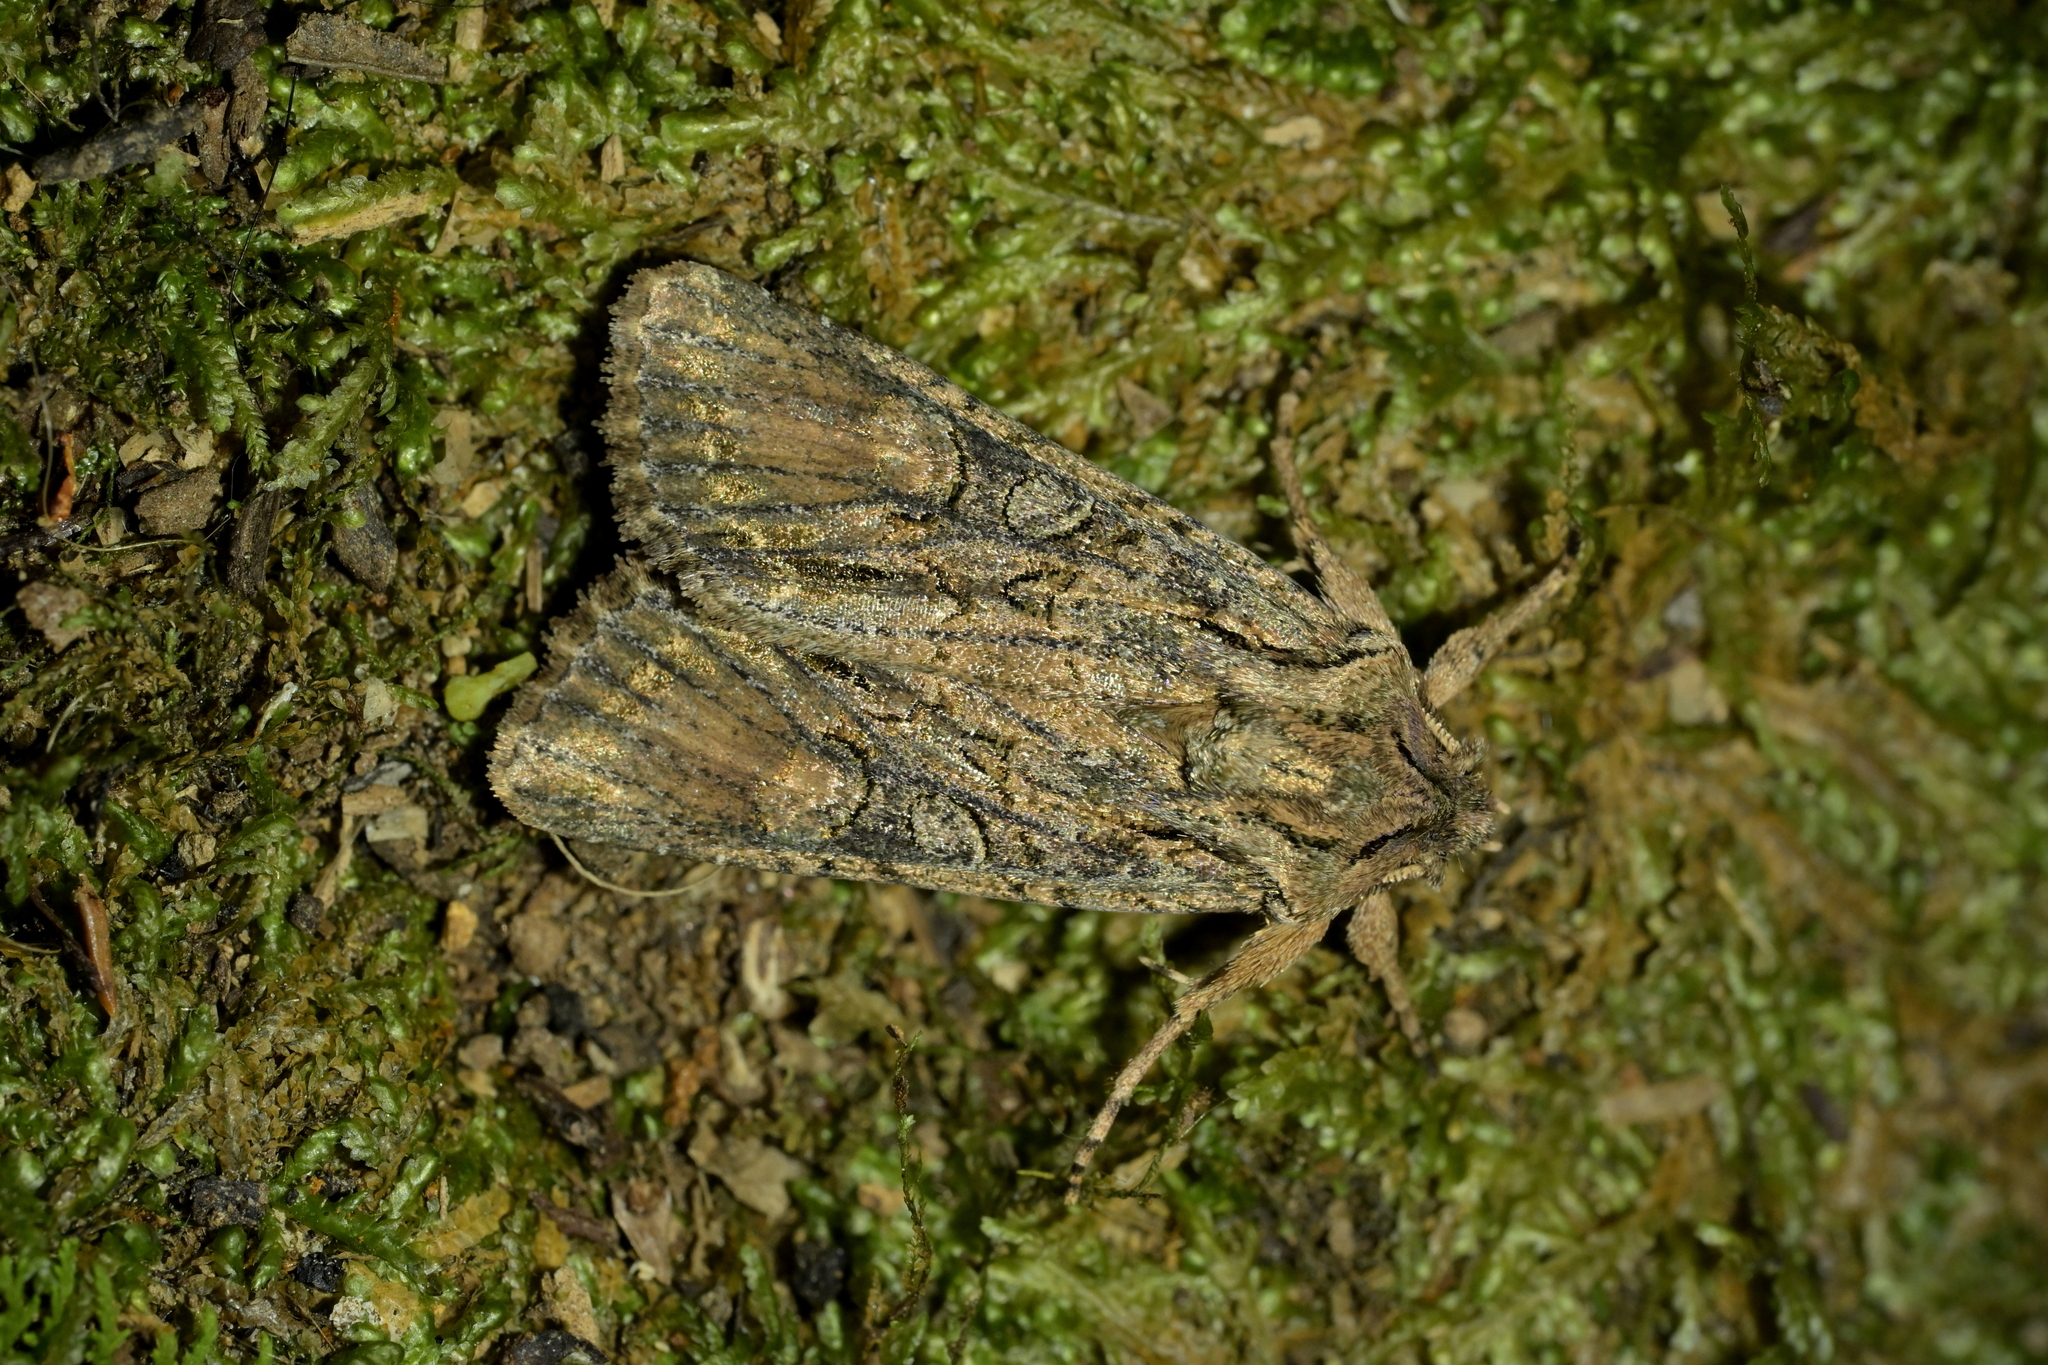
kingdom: Animalia
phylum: Arthropoda
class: Insecta
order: Lepidoptera
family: Noctuidae
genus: Ichneutica
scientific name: Ichneutica mutans
